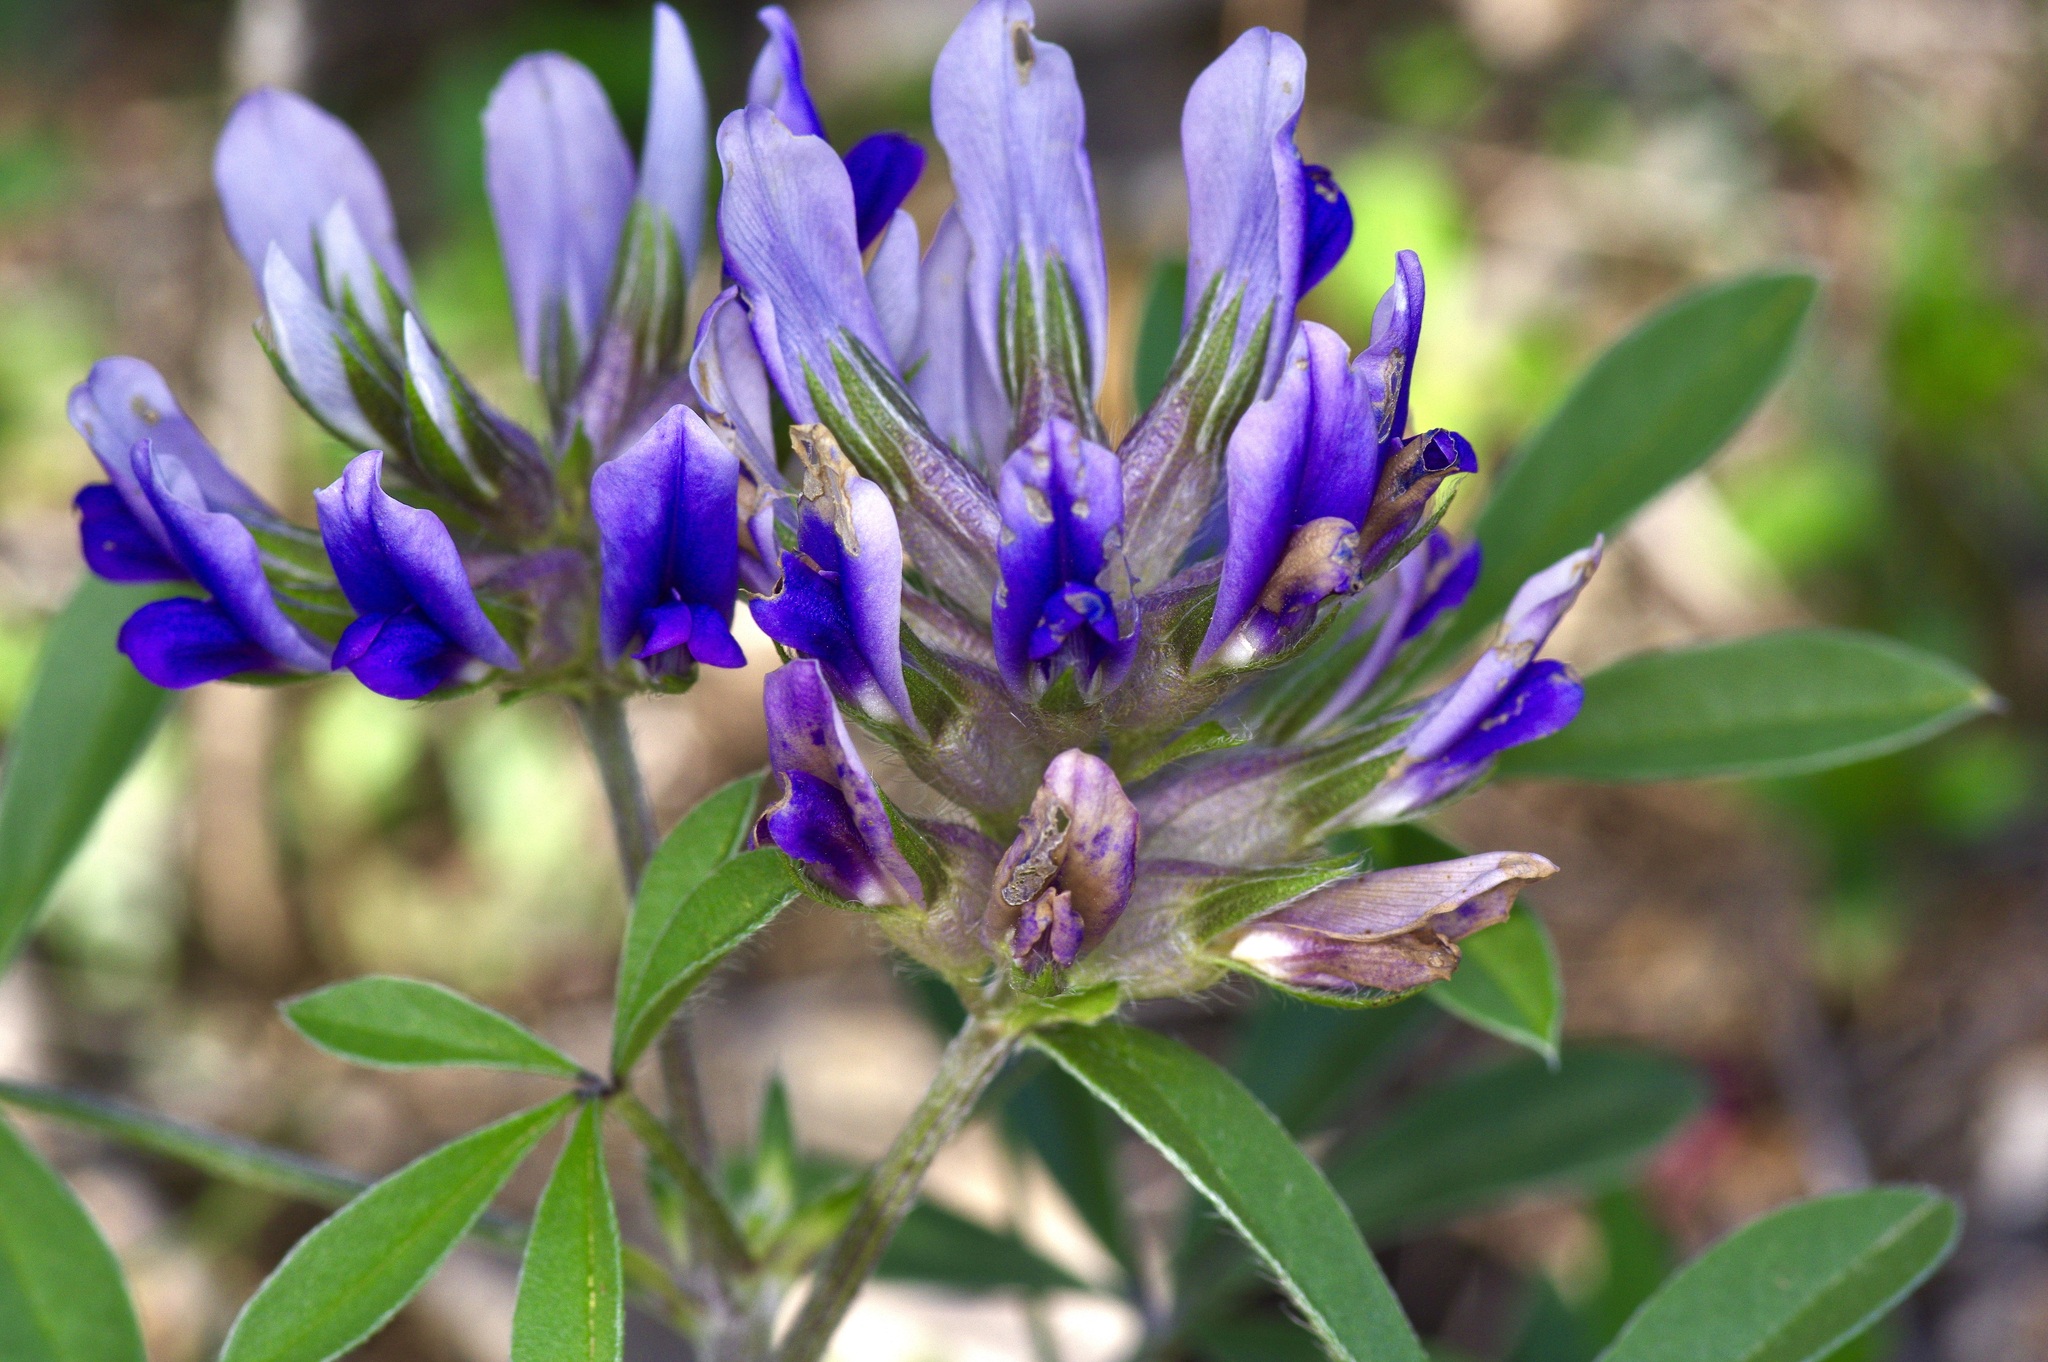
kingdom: Plantae
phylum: Tracheophyta
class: Magnoliopsida
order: Fabales
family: Fabaceae
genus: Pediomelum
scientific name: Pediomelum latestipulatum
